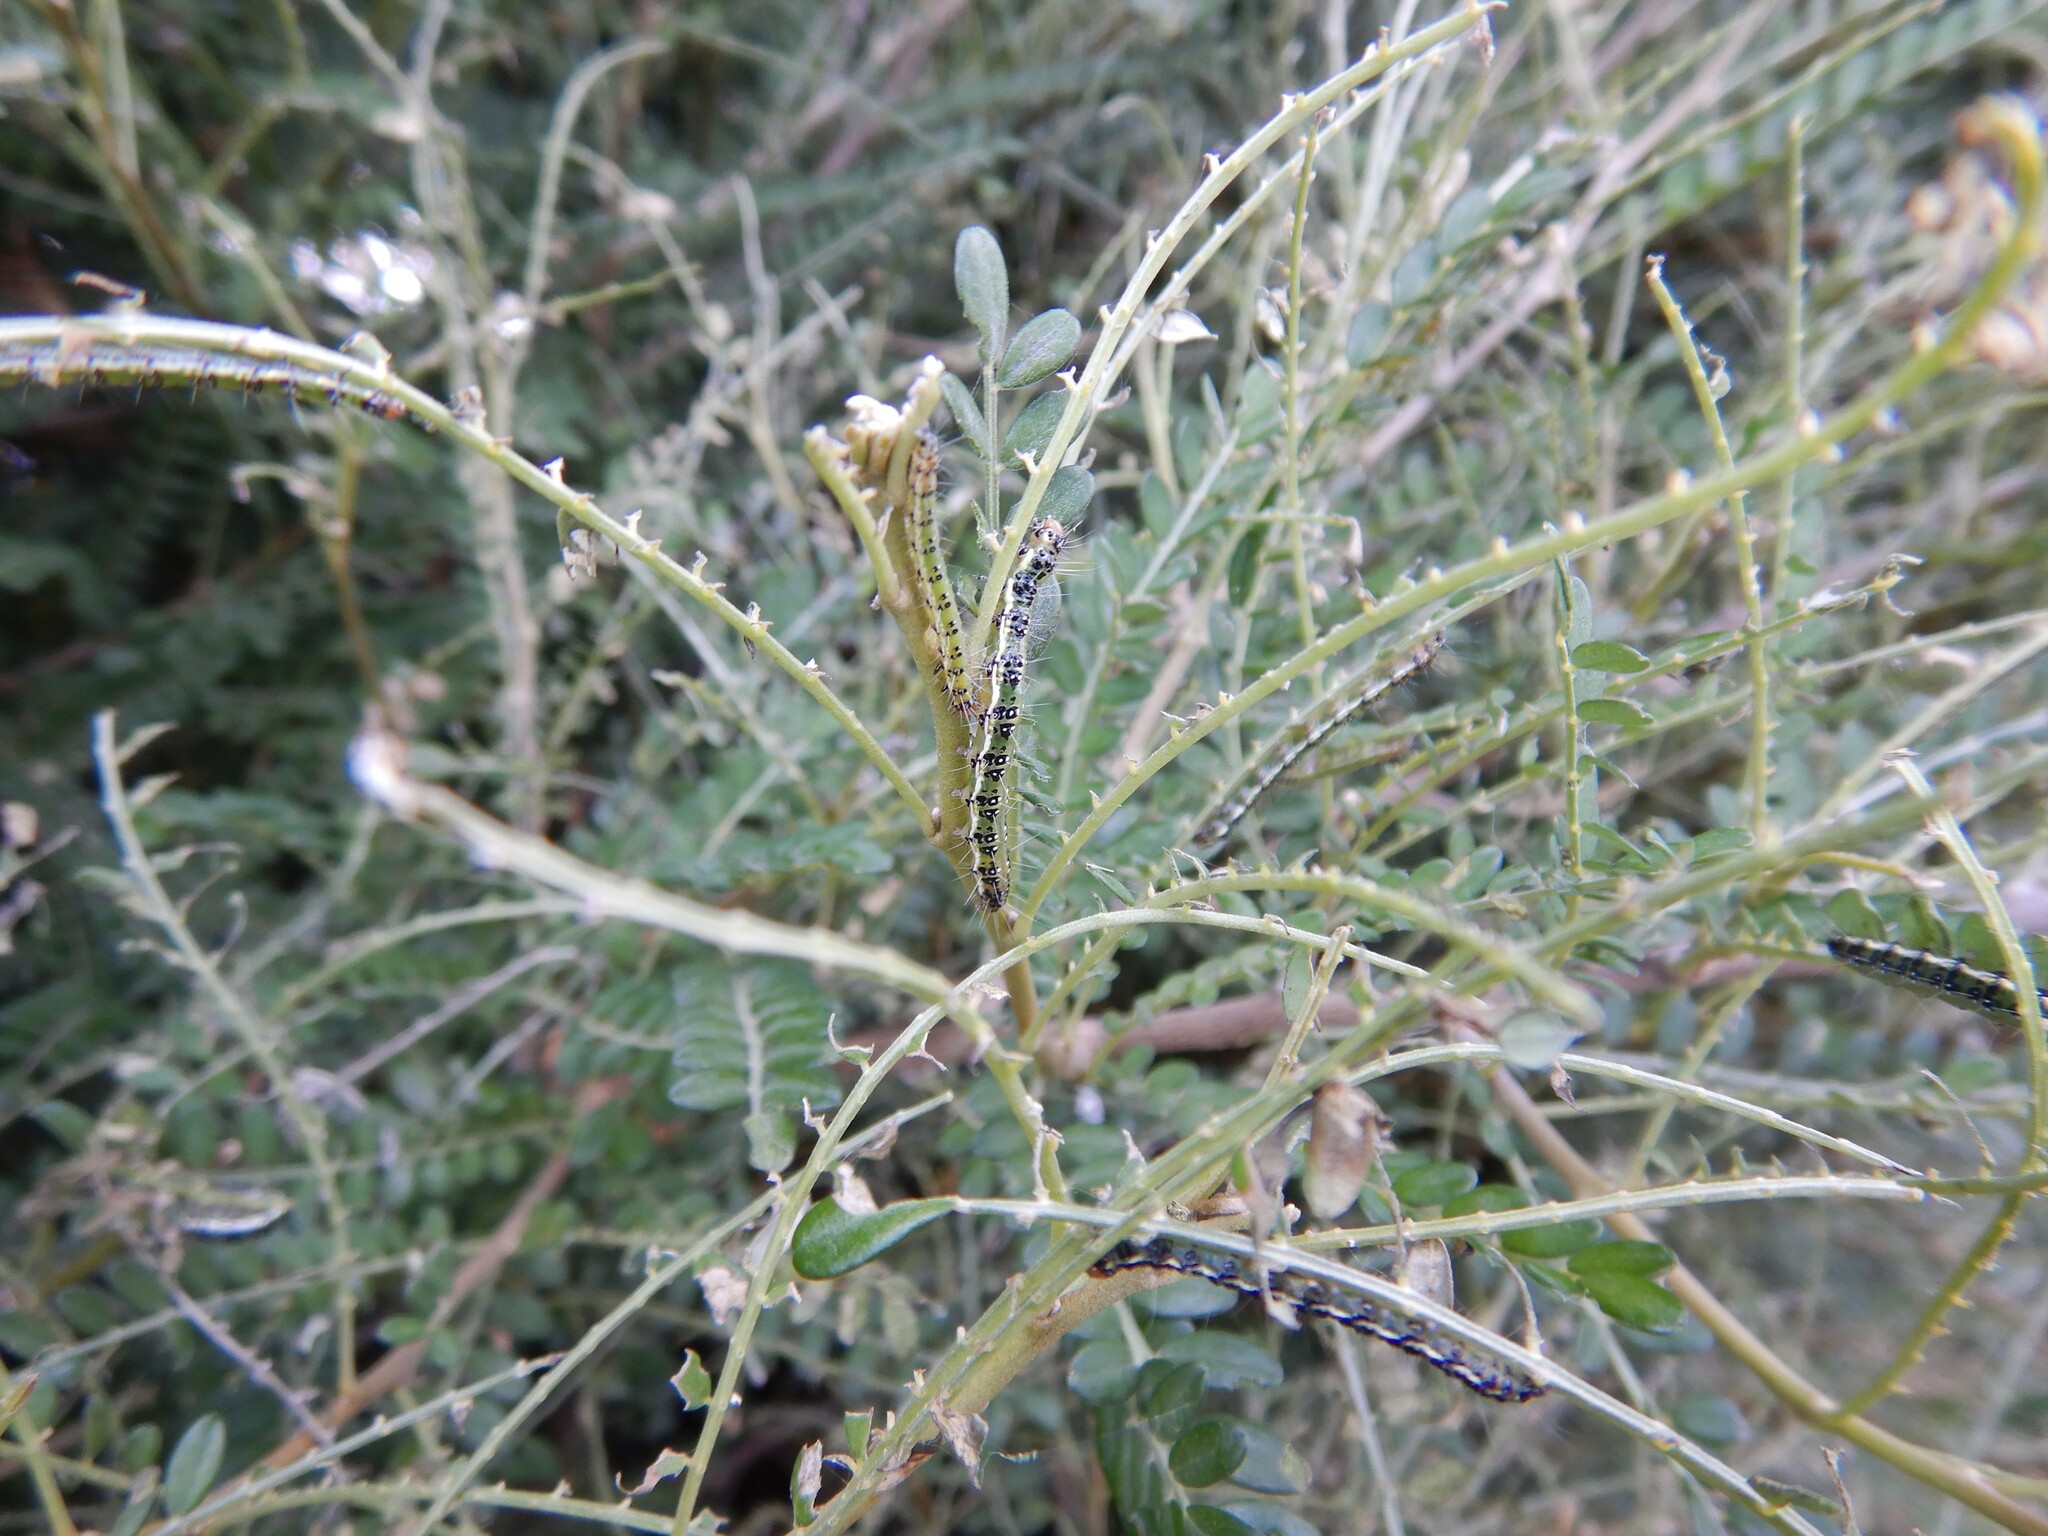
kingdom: Animalia
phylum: Arthropoda
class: Insecta
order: Lepidoptera
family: Crambidae
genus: Uresiphita
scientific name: Uresiphita
